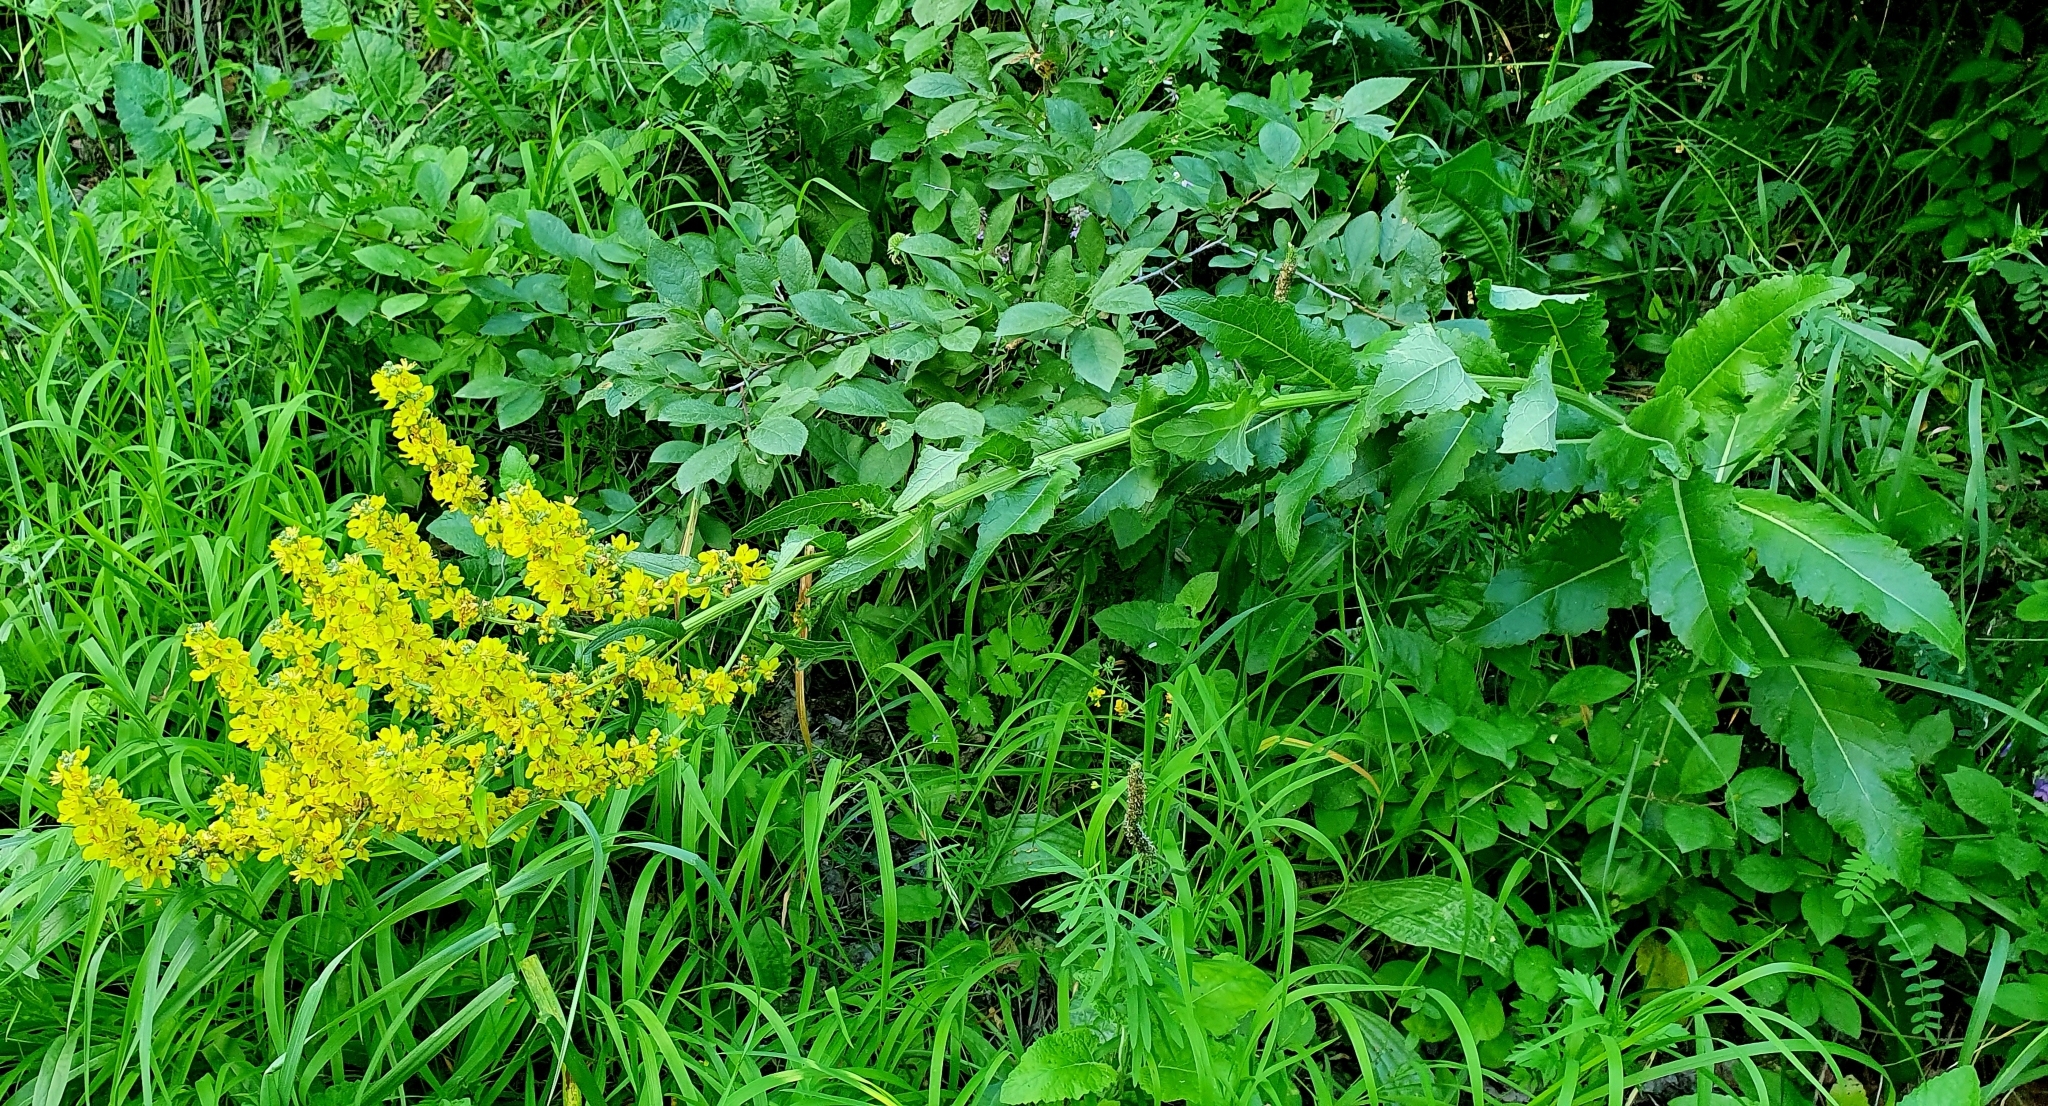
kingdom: Plantae
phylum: Tracheophyta
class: Magnoliopsida
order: Lamiales
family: Scrophulariaceae
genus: Verbascum
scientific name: Verbascum lychnitis
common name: White mullein
